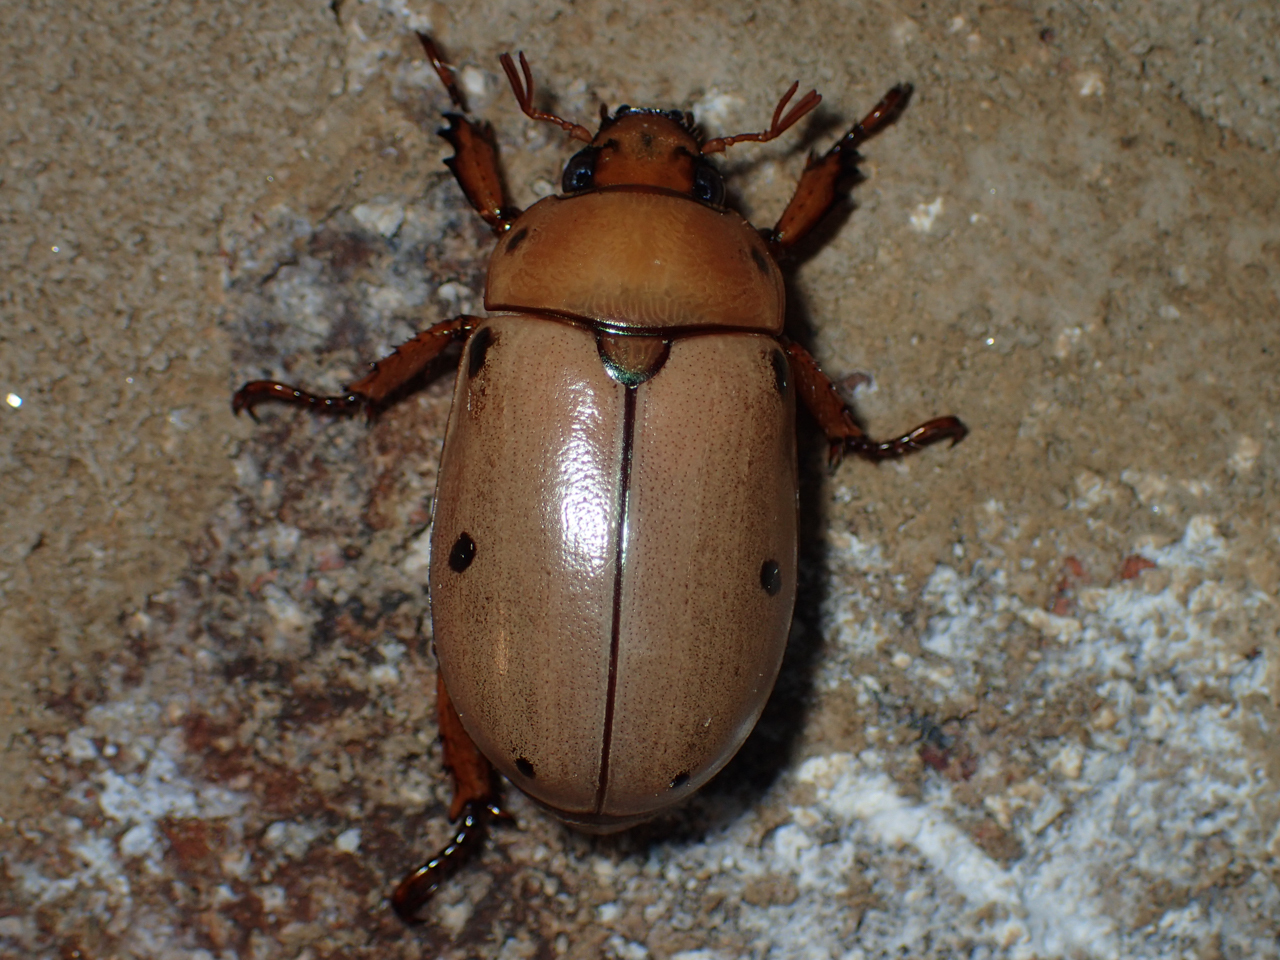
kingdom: Animalia
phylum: Arthropoda
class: Insecta
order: Coleoptera
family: Scarabaeidae
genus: Pelidnota
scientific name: Pelidnota punctata
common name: Grapevine beetle
